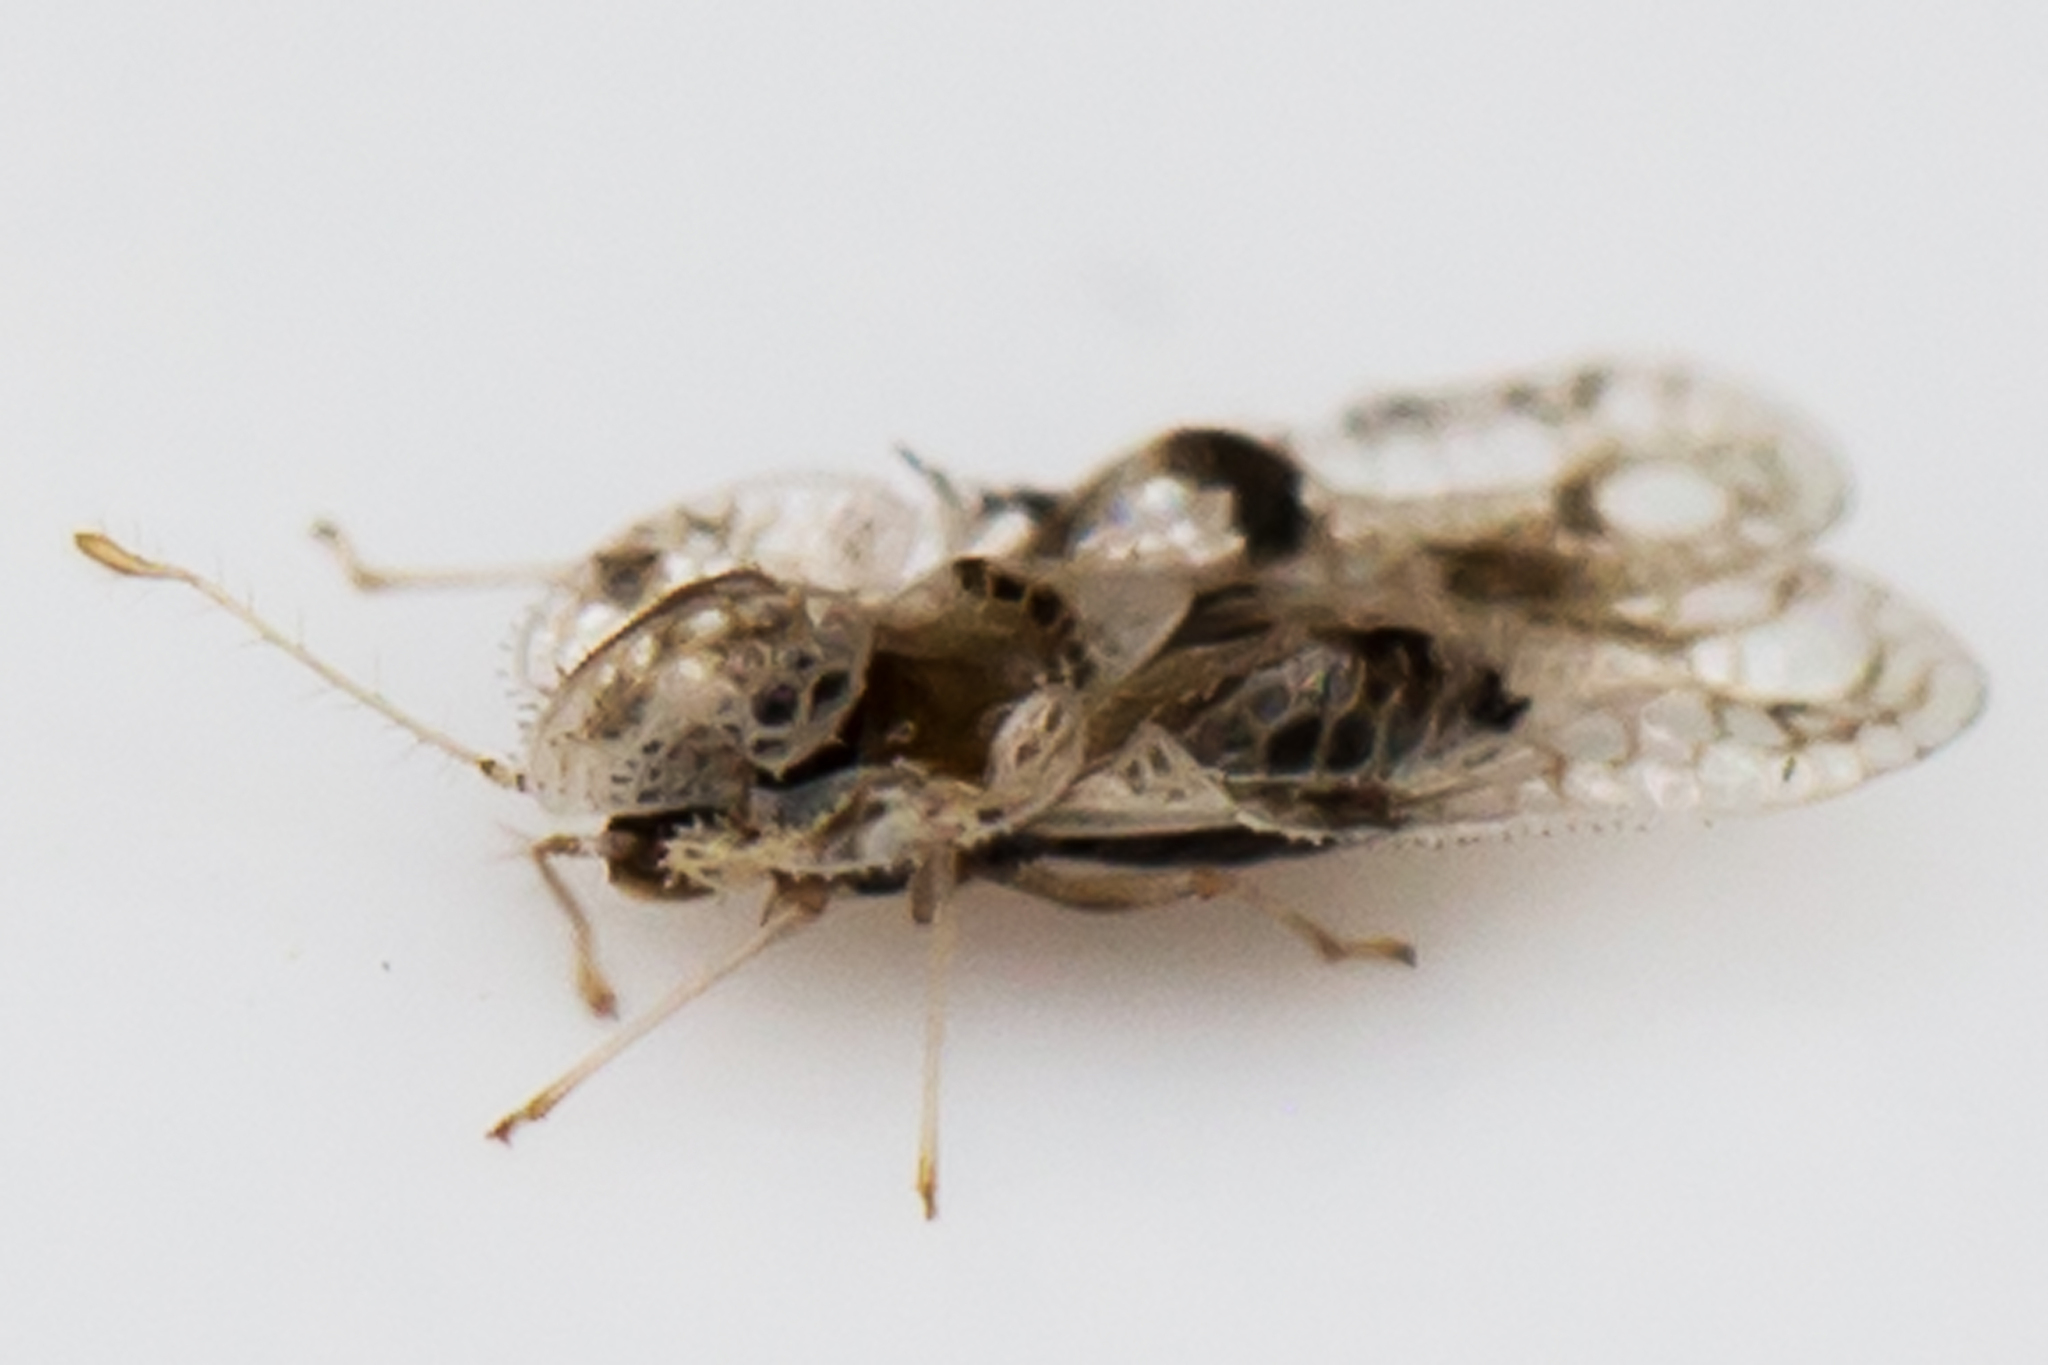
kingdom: Animalia
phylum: Arthropoda
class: Insecta
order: Hemiptera
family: Tingidae
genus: Corythucha
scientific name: Corythucha arcuata
